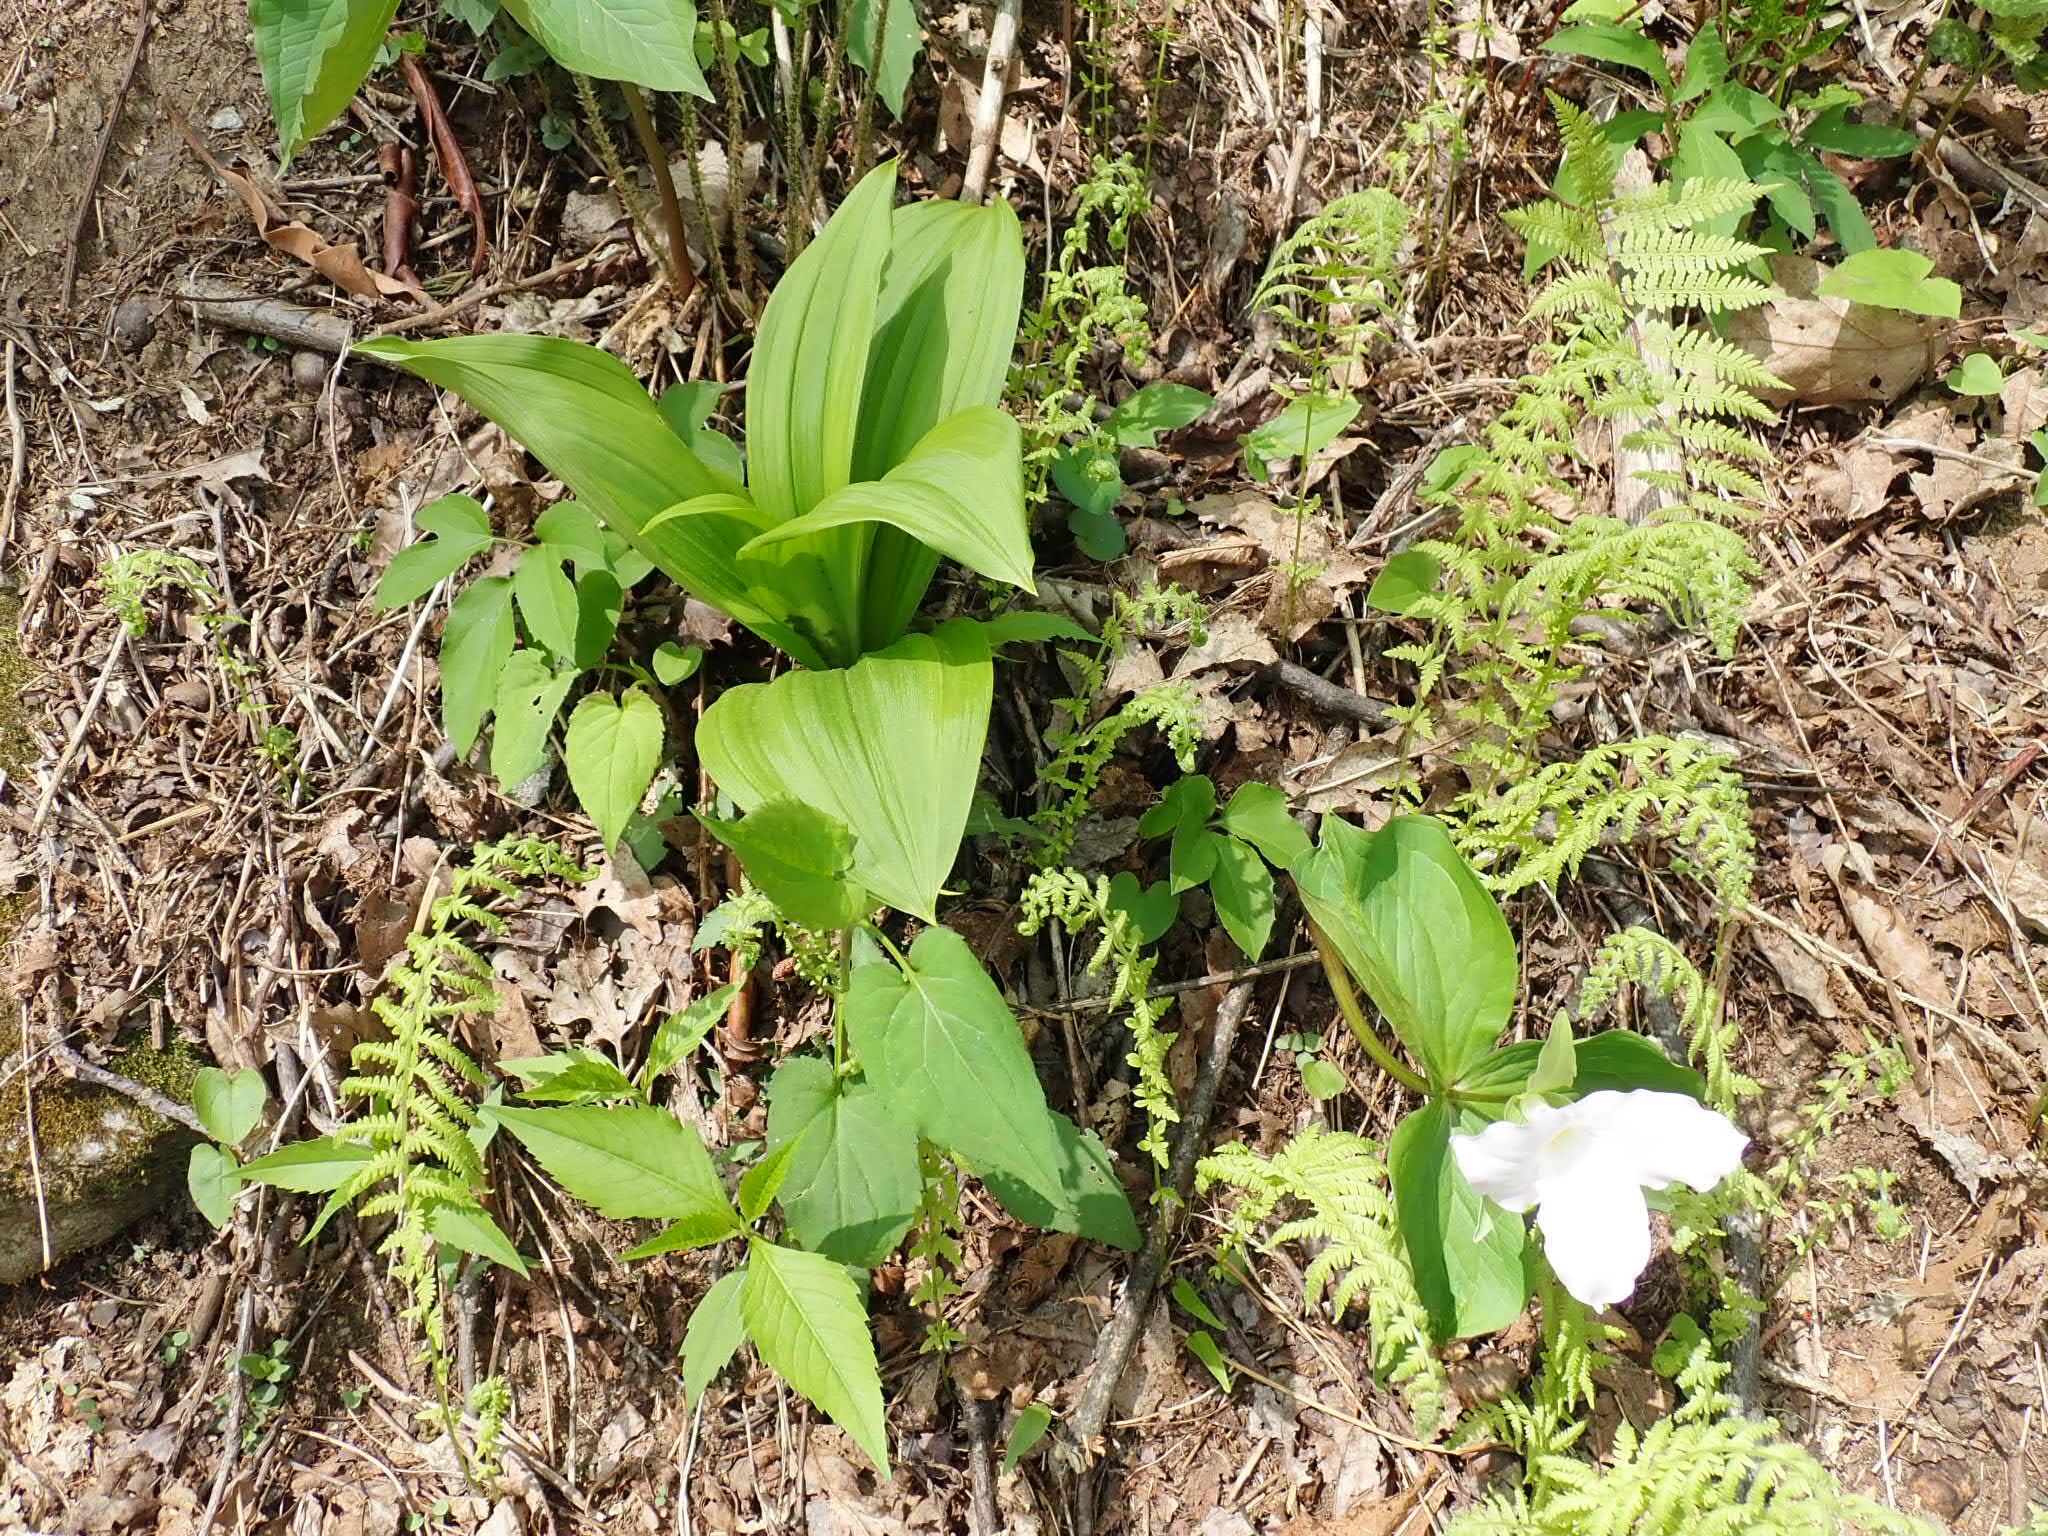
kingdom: Plantae
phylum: Tracheophyta
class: Liliopsida
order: Liliales
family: Melanthiaceae
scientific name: Melanthiaceae
